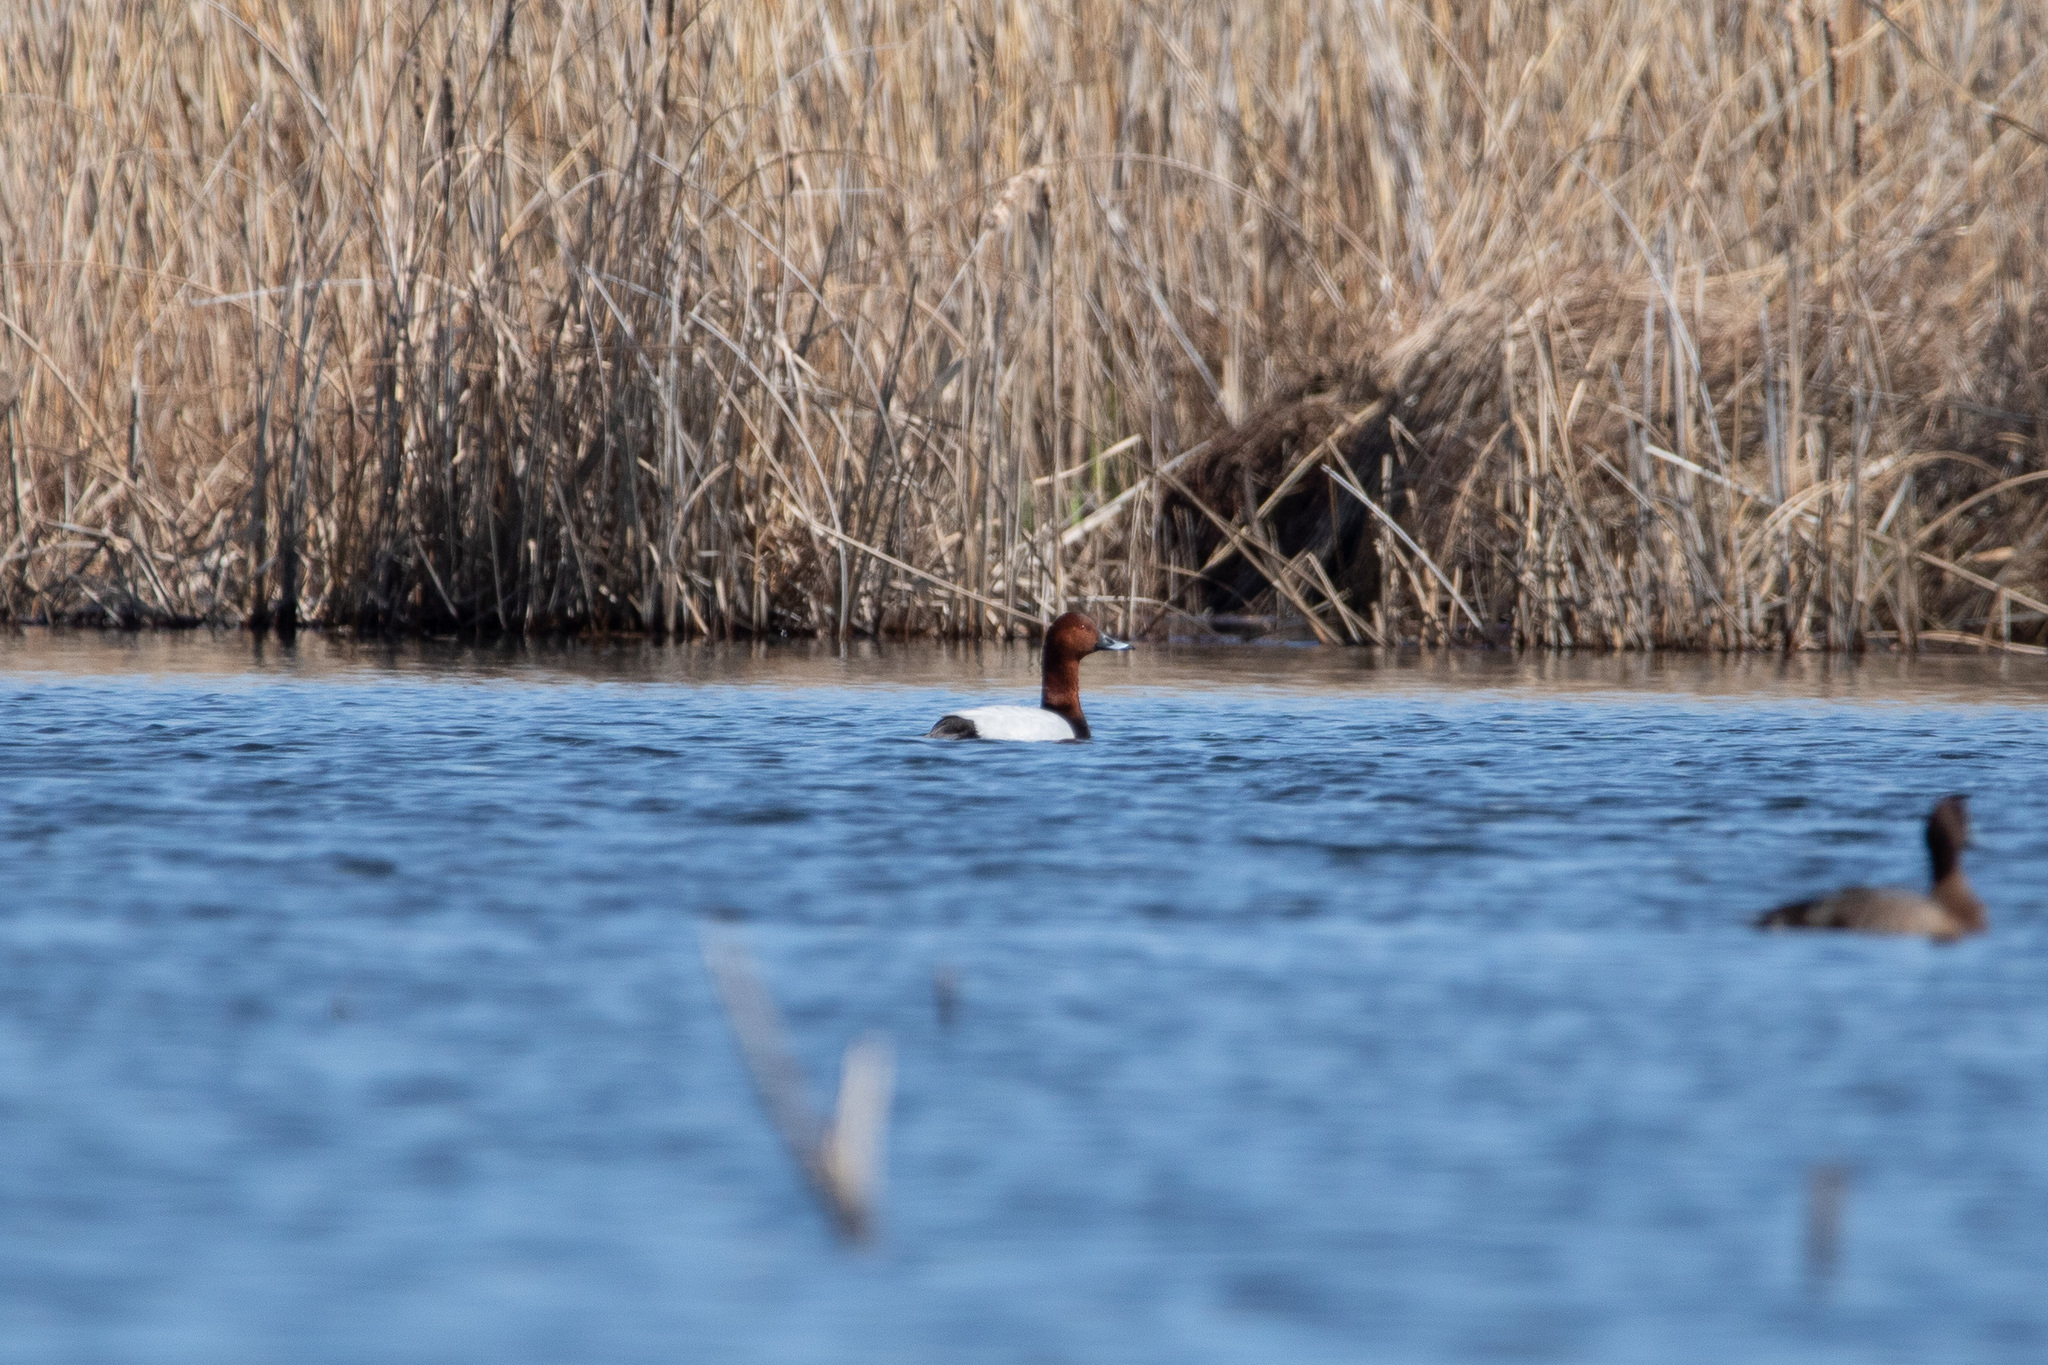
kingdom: Animalia
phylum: Chordata
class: Aves
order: Anseriformes
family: Anatidae
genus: Aythya
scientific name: Aythya ferina
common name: Common pochard
